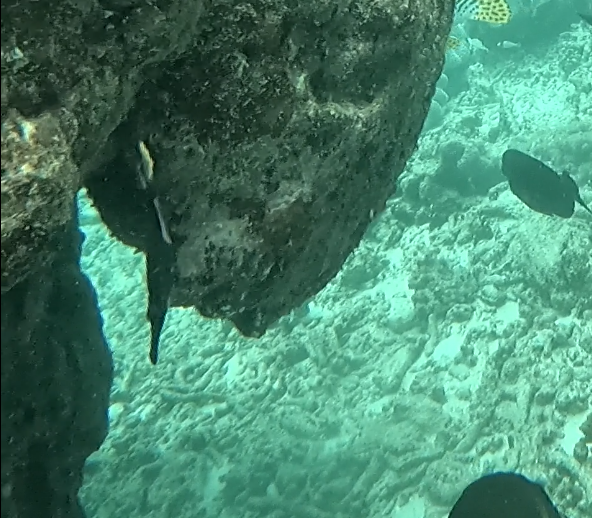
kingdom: Animalia
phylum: Chordata
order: Syngnathiformes
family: Aulostomidae
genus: Aulostomus
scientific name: Aulostomus chinensis
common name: Chinese trumpetfish
